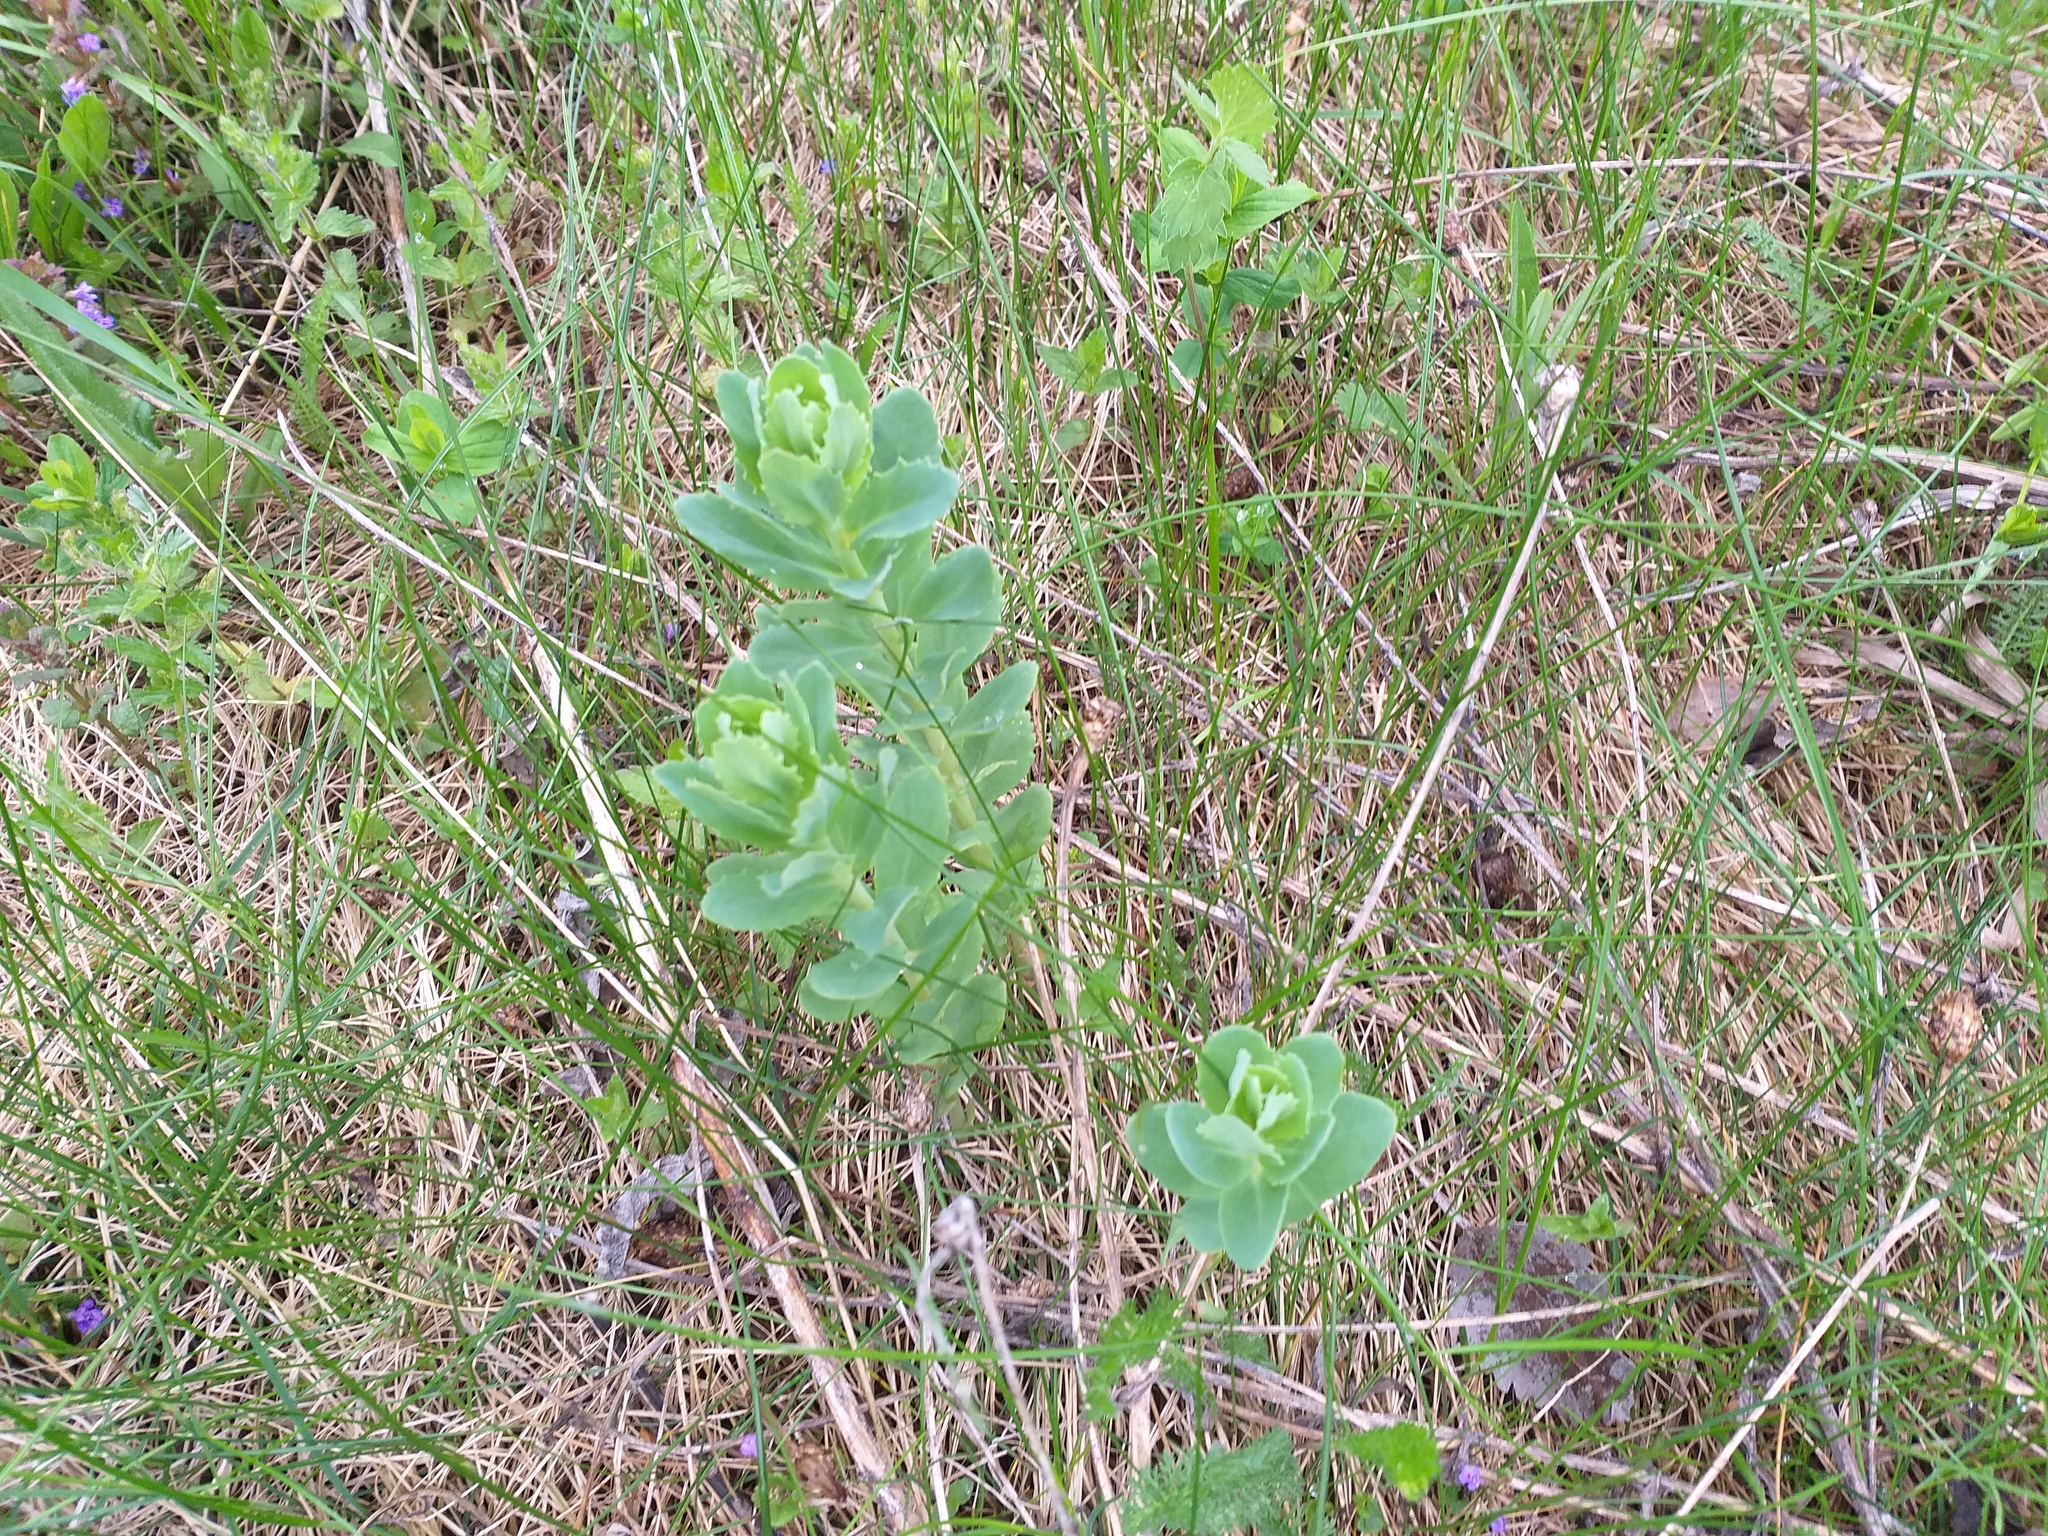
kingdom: Plantae
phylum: Tracheophyta
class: Magnoliopsida
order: Saxifragales
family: Crassulaceae
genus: Hylotelephium
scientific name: Hylotelephium telephium
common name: Live-forever
